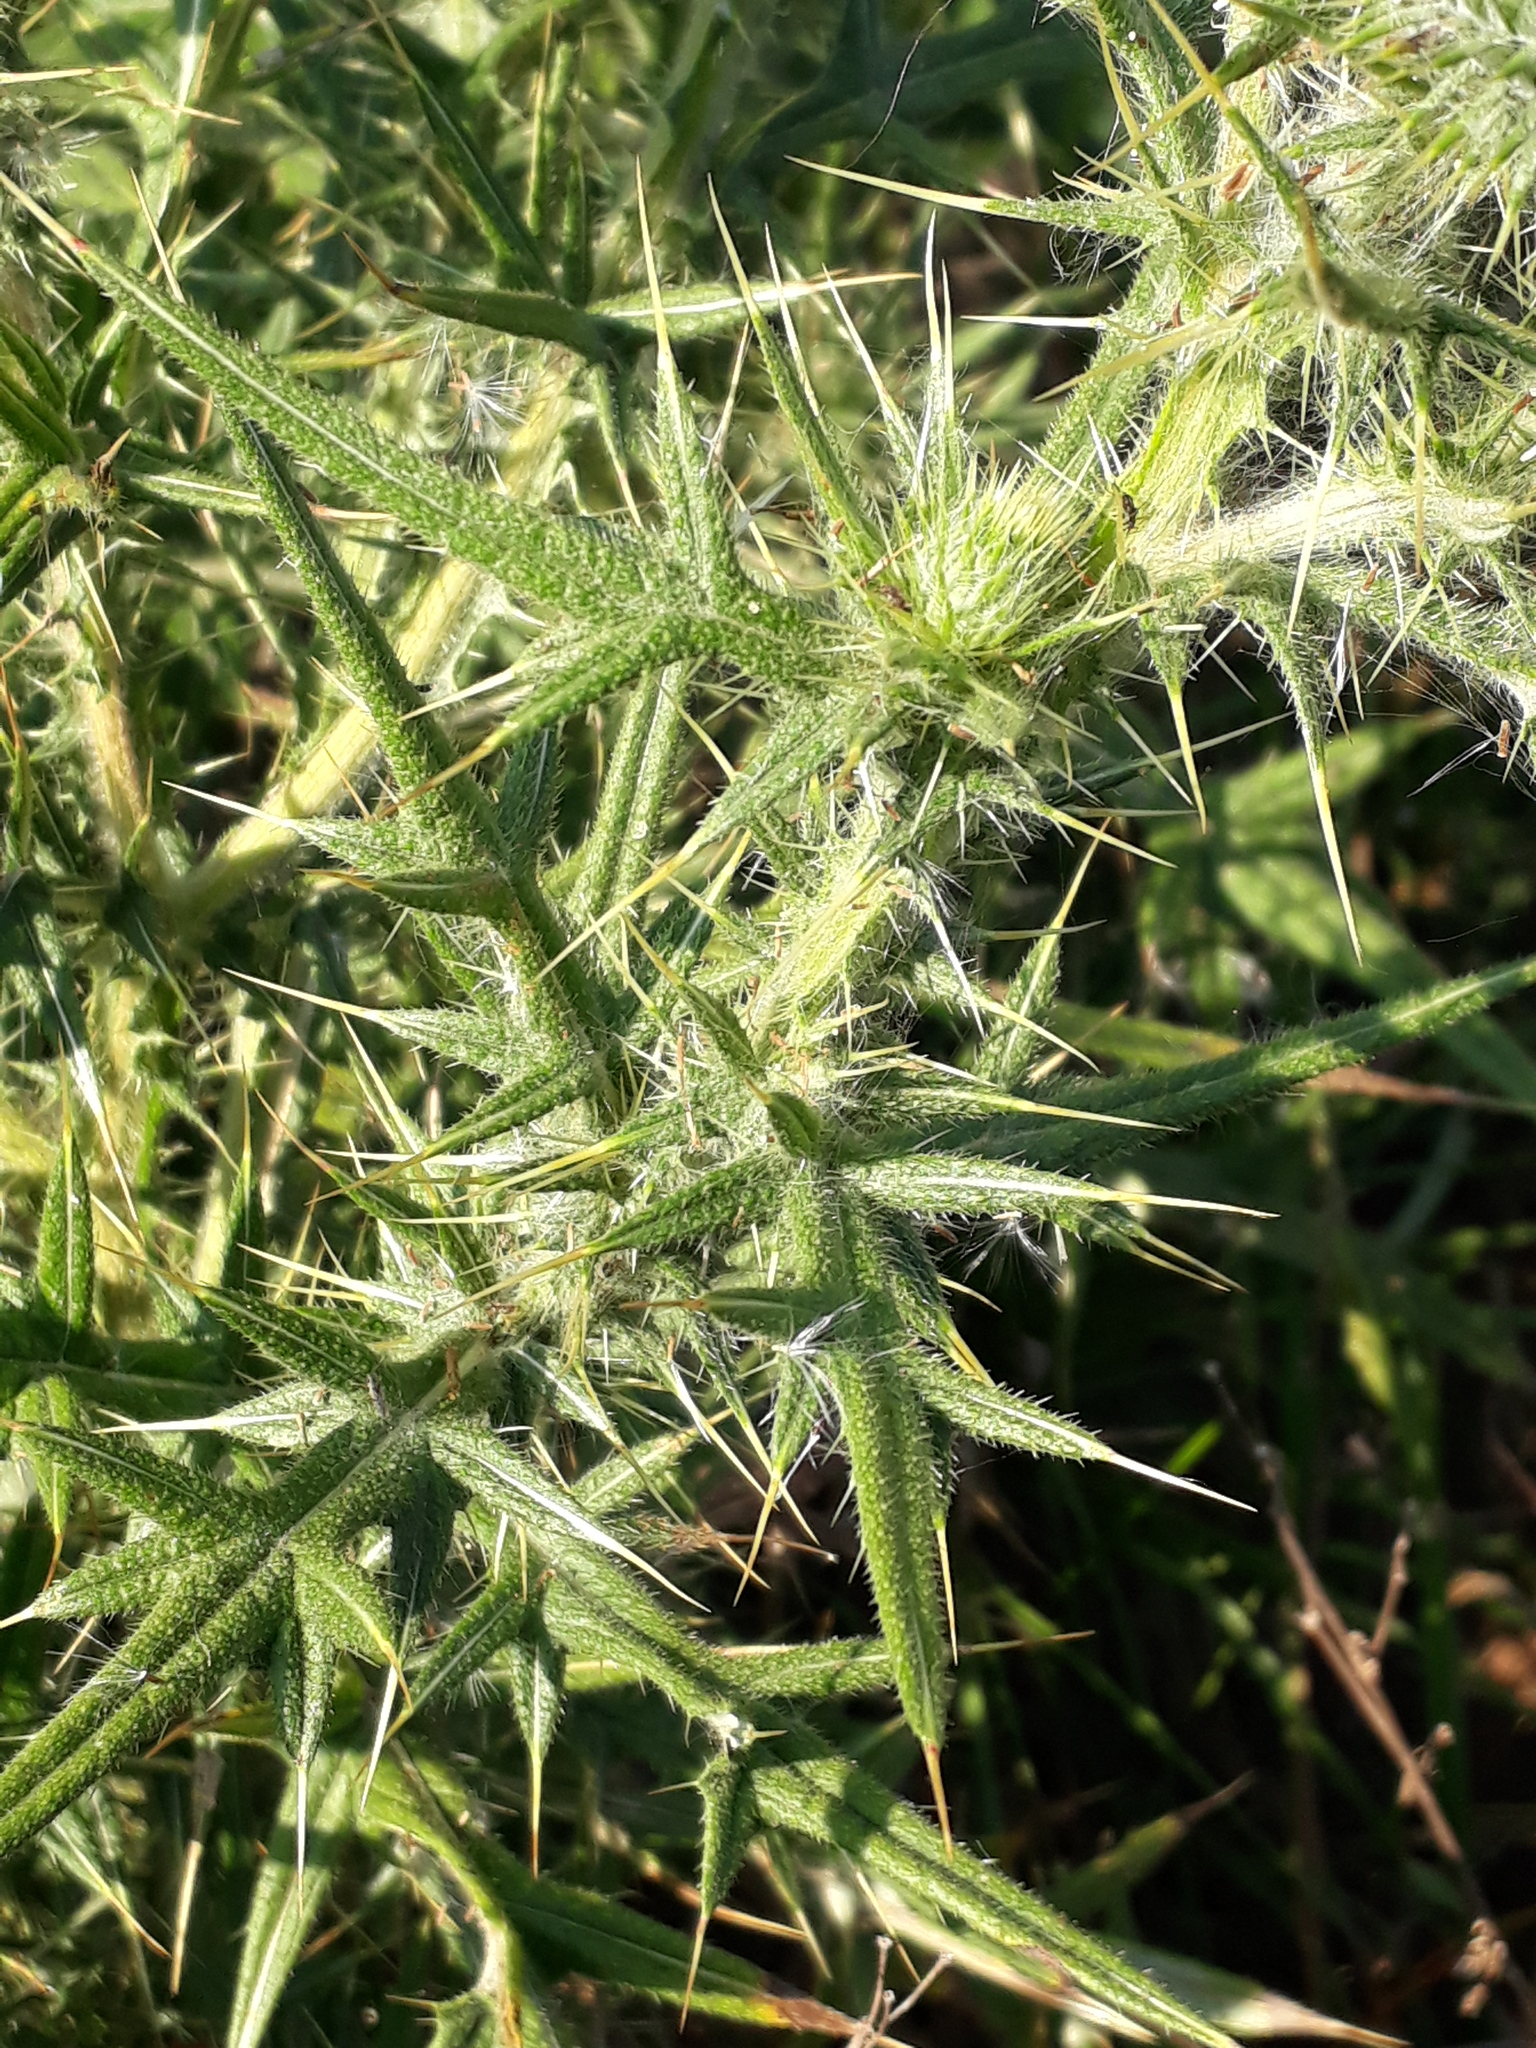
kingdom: Plantae
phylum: Tracheophyta
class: Magnoliopsida
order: Asterales
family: Asteraceae
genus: Cirsium
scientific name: Cirsium vulgare
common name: Bull thistle
